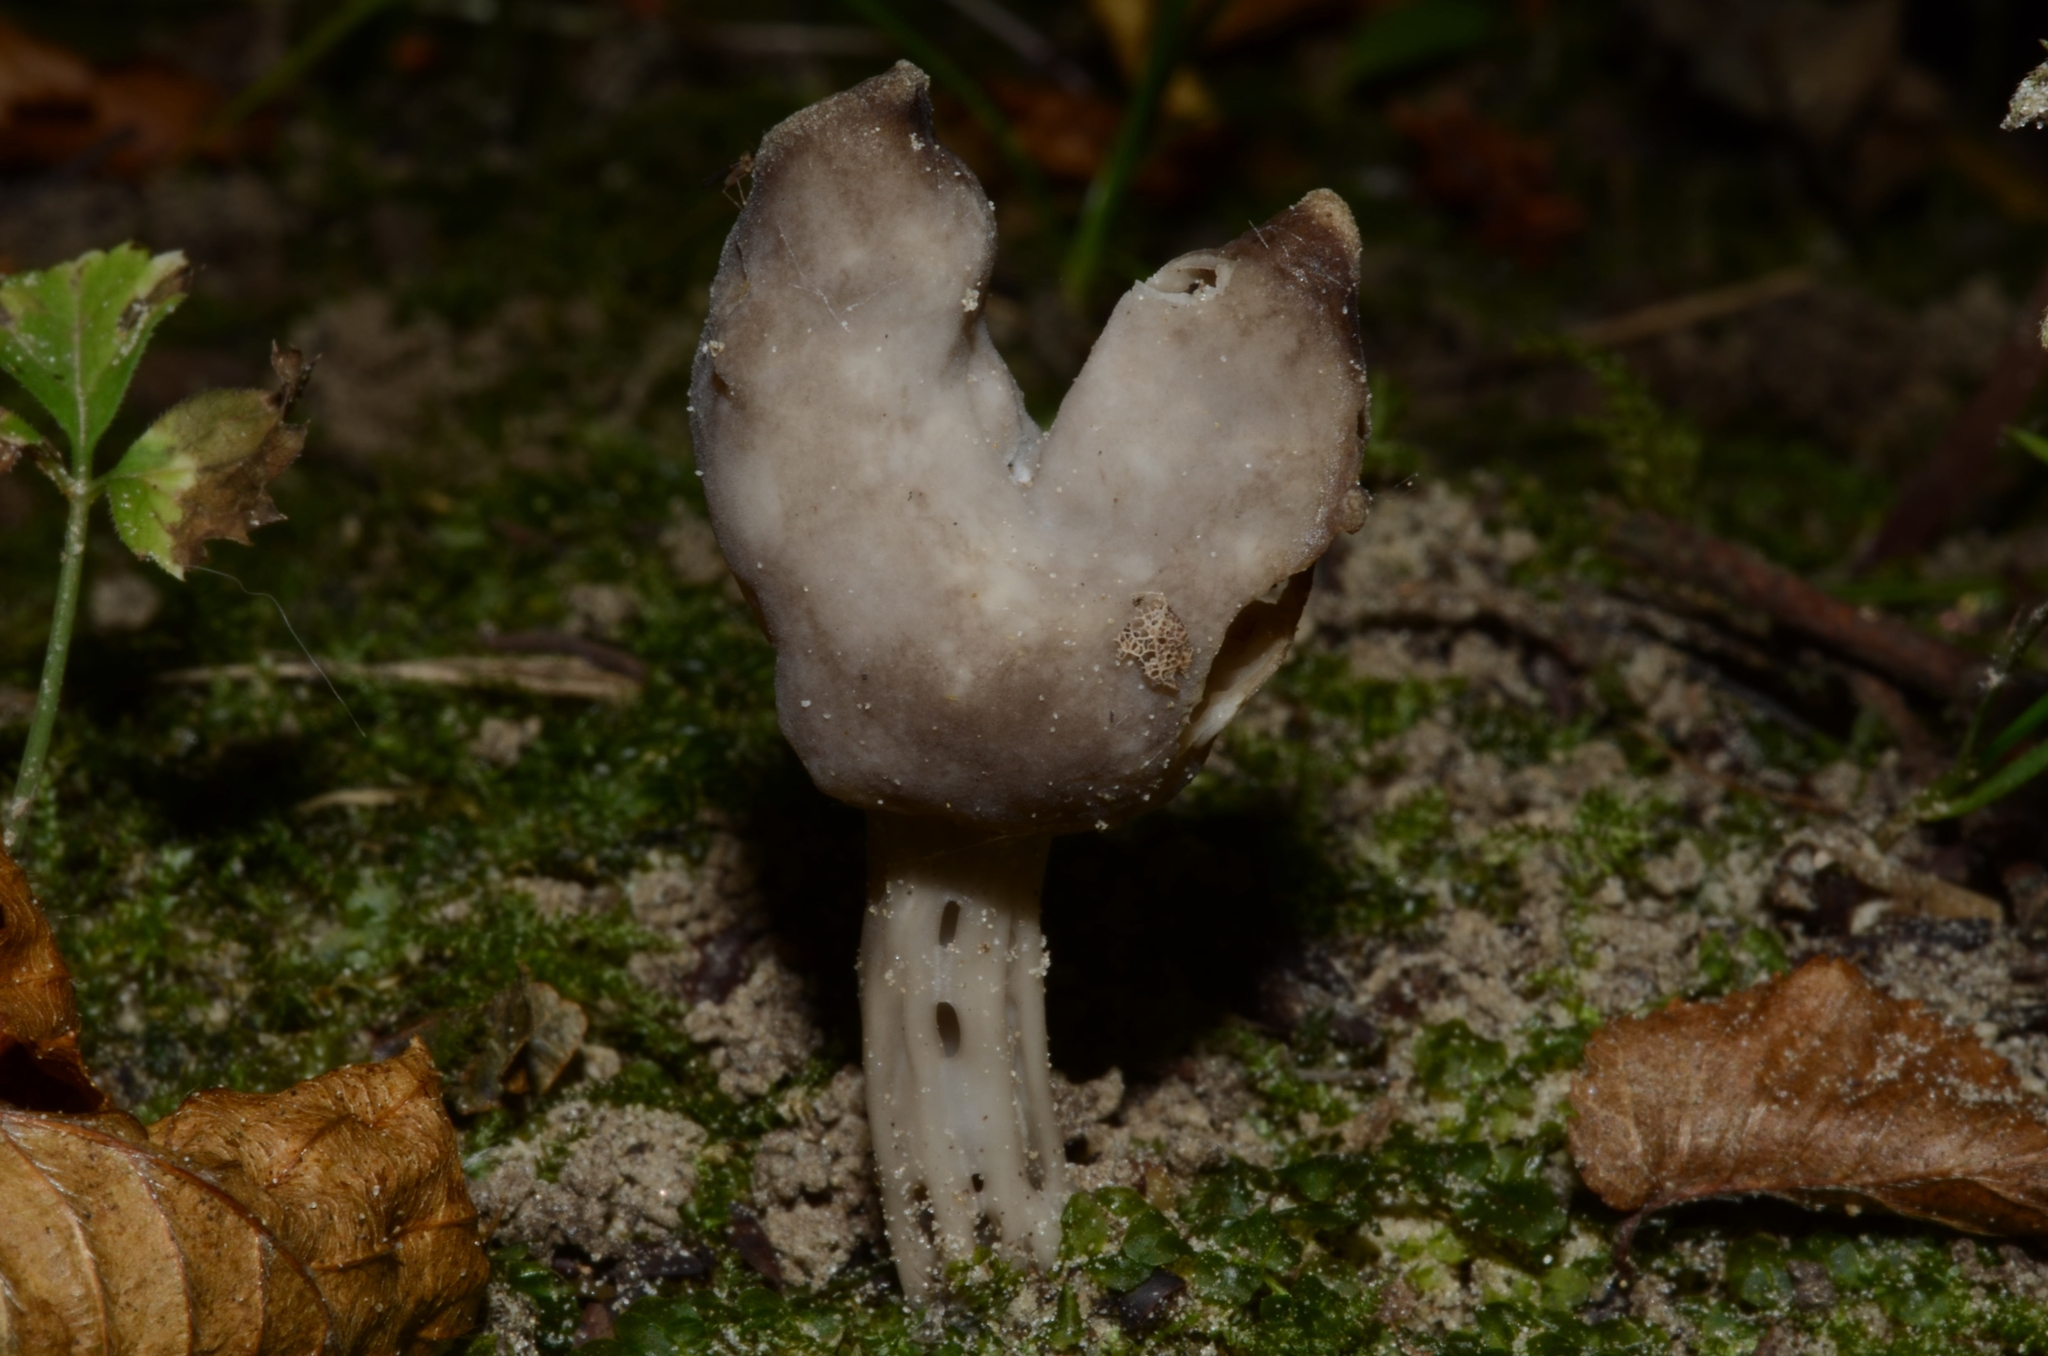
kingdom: Fungi
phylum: Ascomycota
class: Pezizomycetes
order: Pezizales
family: Helvellaceae
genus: Helvella
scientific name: Helvella lacunosa
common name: Elfin saddle
